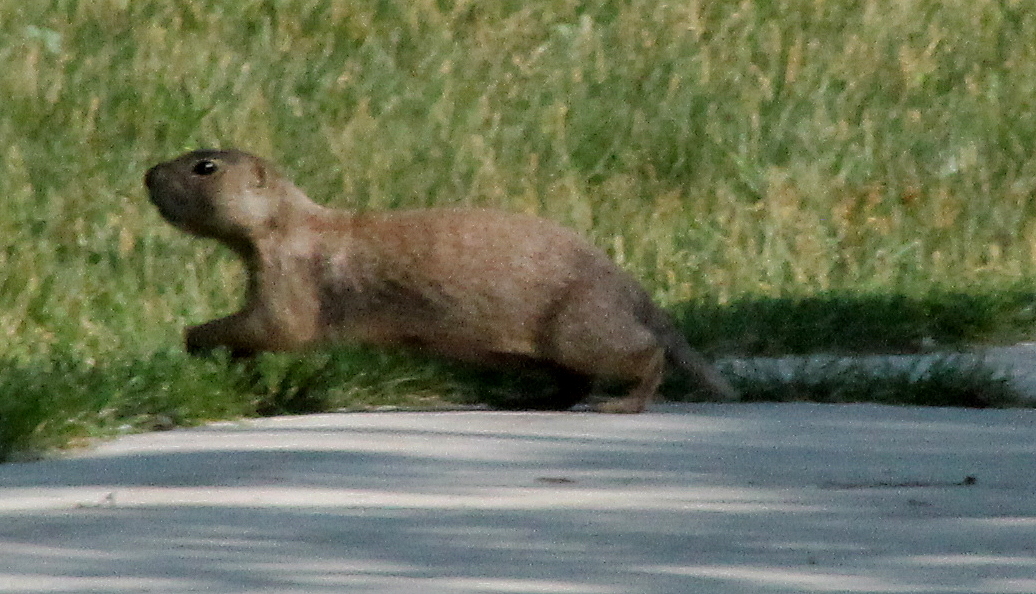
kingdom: Animalia
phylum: Chordata
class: Mammalia
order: Rodentia
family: Sciuridae
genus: Cynomys
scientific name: Cynomys gunnisoni
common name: Gunnison's prairie dog
